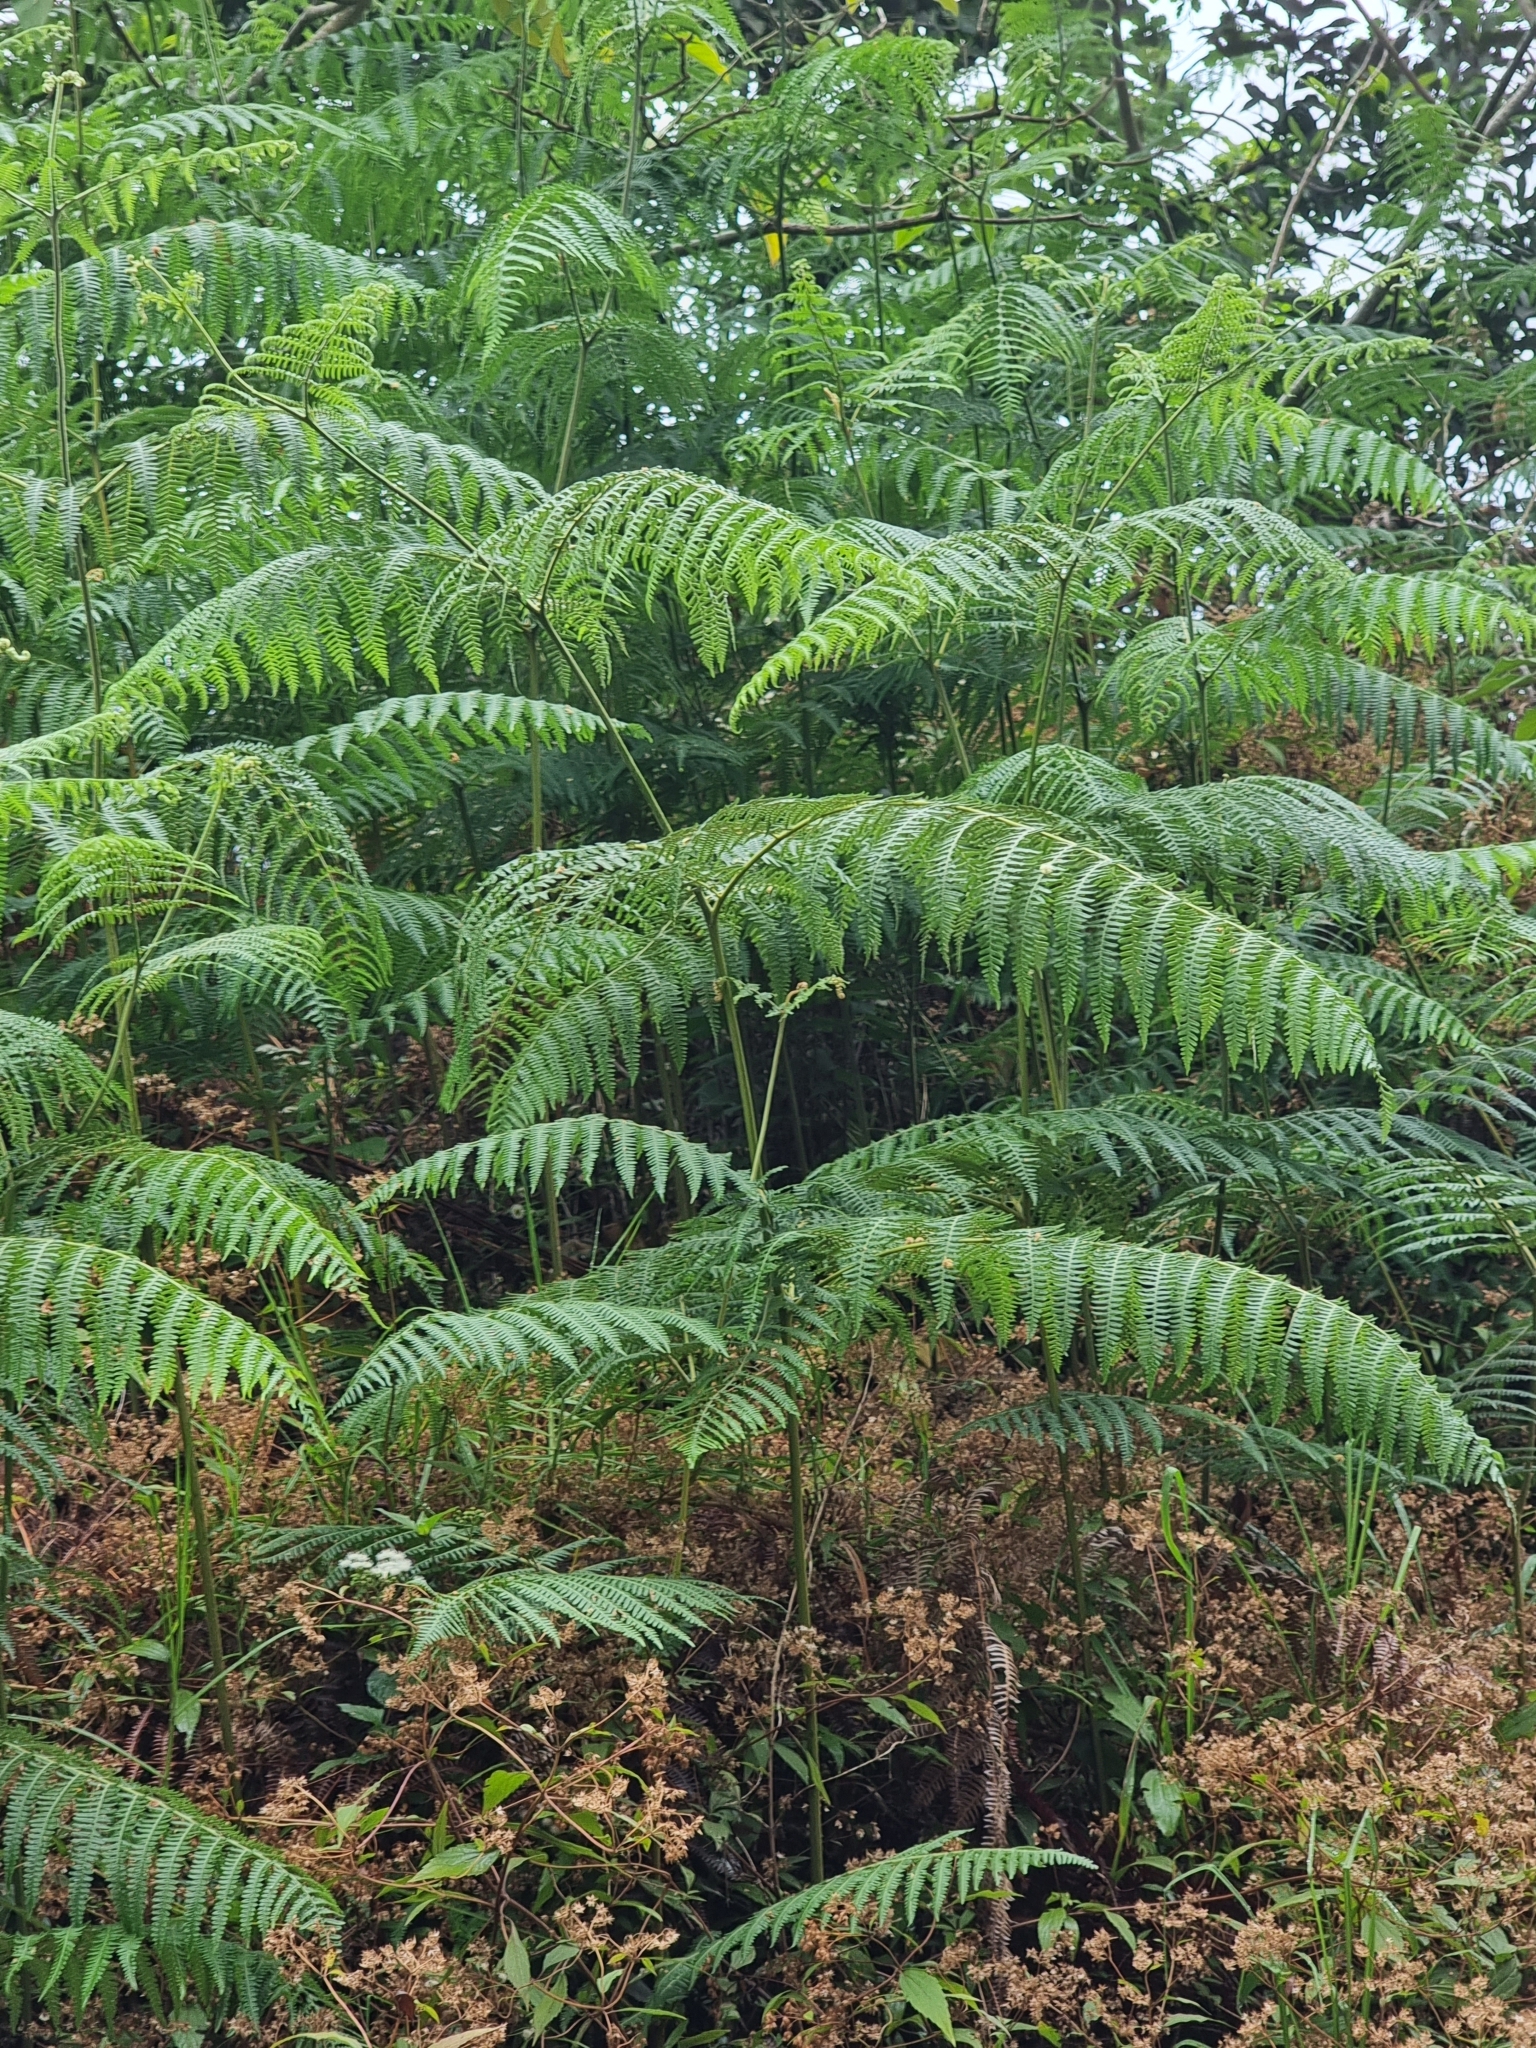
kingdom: Plantae
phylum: Tracheophyta
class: Polypodiopsida
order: Polypodiales
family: Dennstaedtiaceae
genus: Pteridium
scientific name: Pteridium aquilinum
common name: Bracken
